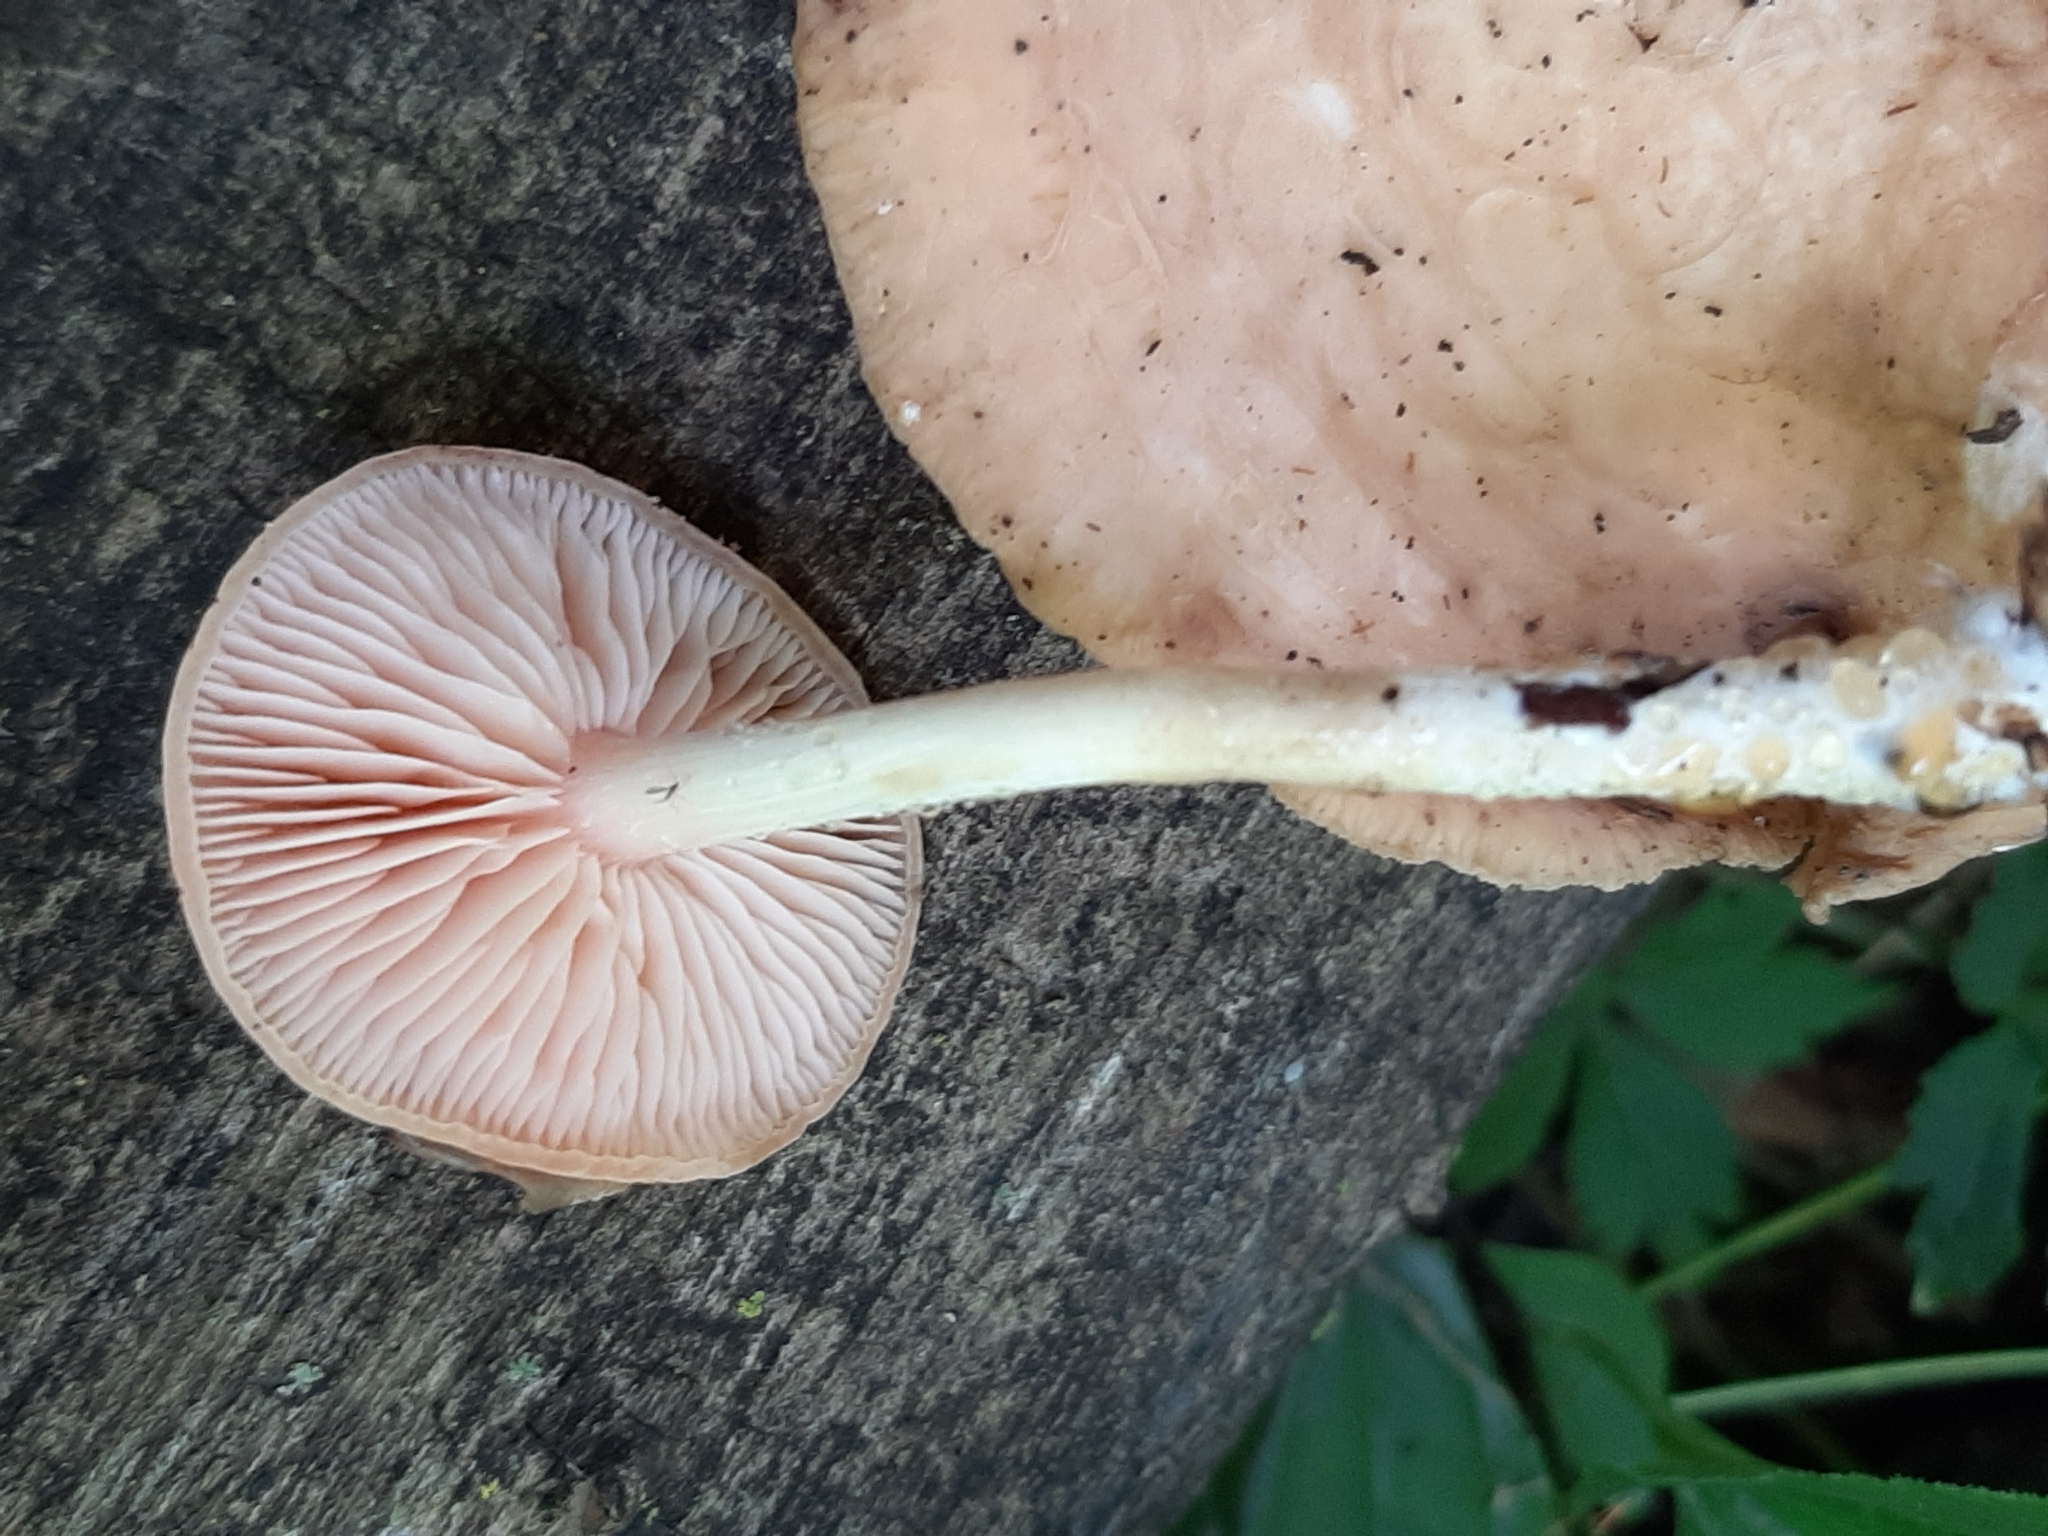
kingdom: Fungi
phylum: Basidiomycota
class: Agaricomycetes
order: Agaricales
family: Physalacriaceae
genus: Rhodotus
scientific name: Rhodotus palmatus
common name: Wrinkled peach
